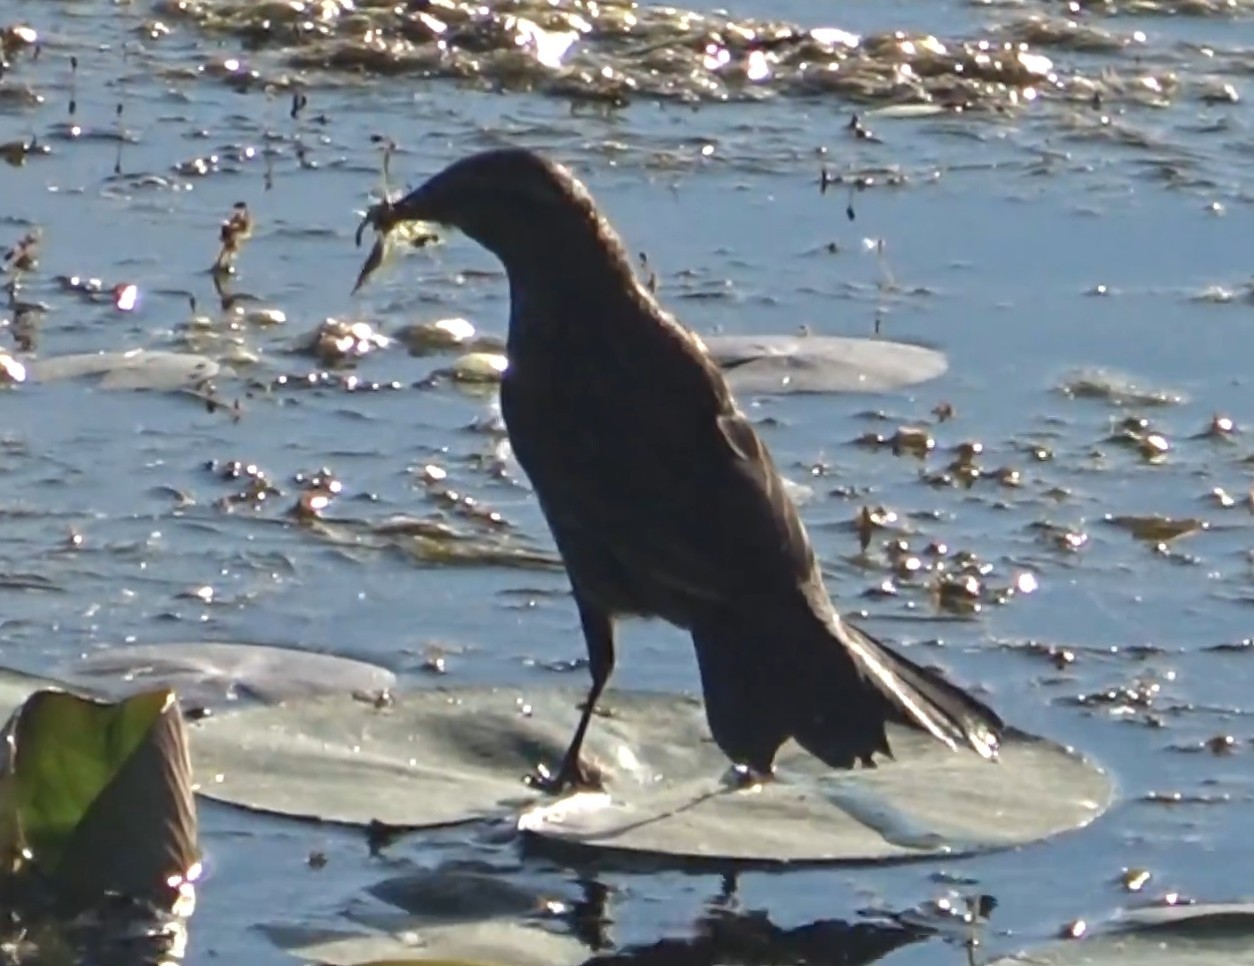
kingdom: Animalia
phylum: Chordata
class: Aves
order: Passeriformes
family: Icteridae
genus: Agelaius
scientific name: Agelaius phoeniceus
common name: Red-winged blackbird
